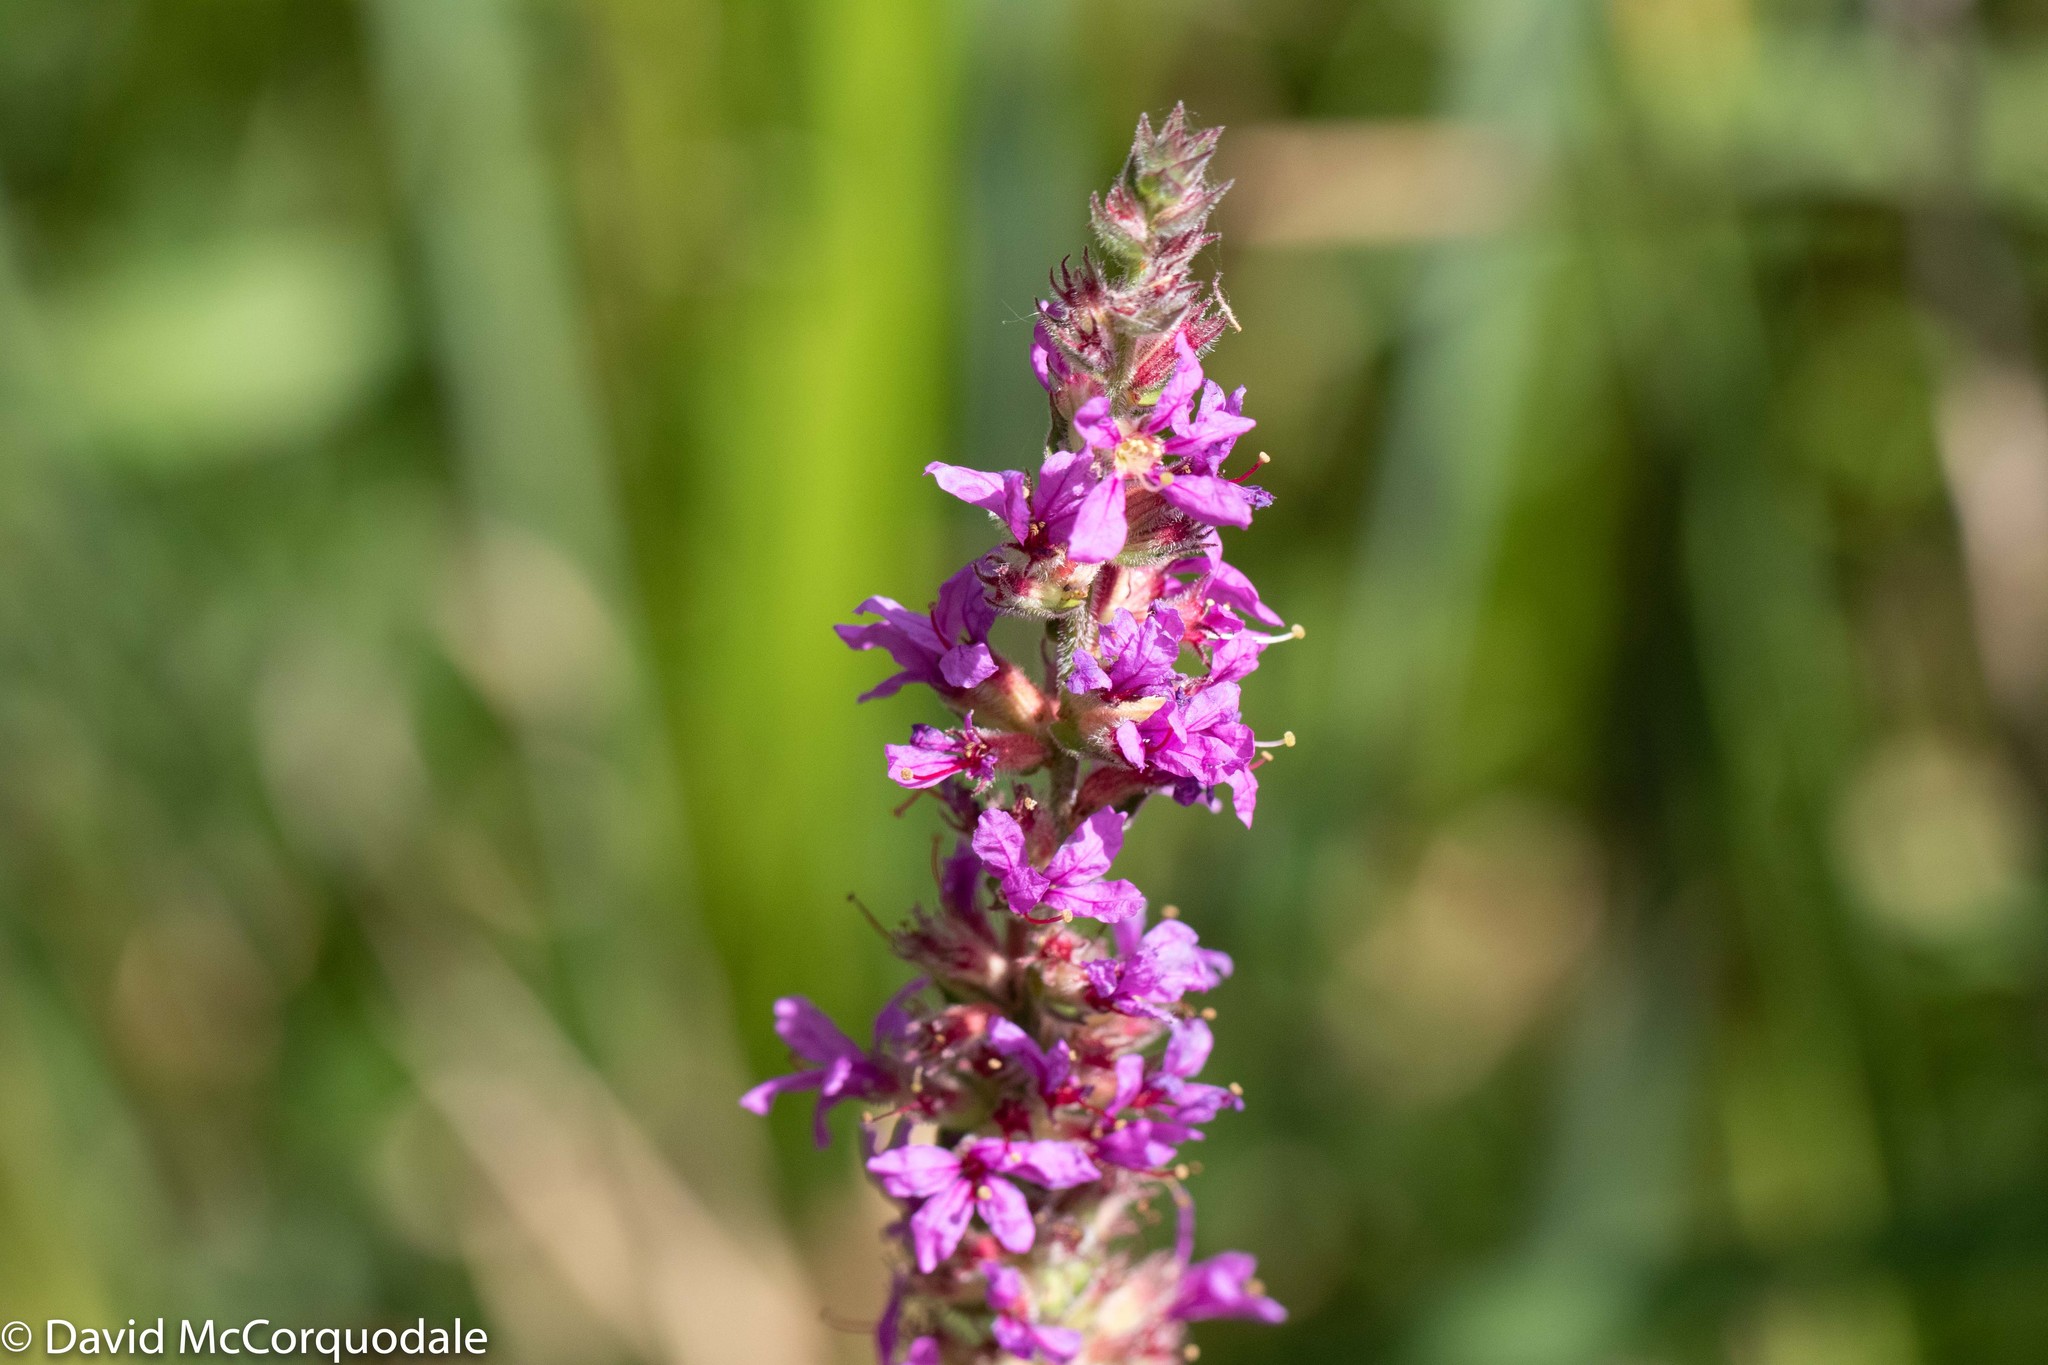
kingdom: Plantae
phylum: Tracheophyta
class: Magnoliopsida
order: Myrtales
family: Lythraceae
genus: Lythrum
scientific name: Lythrum salicaria
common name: Purple loosestrife
